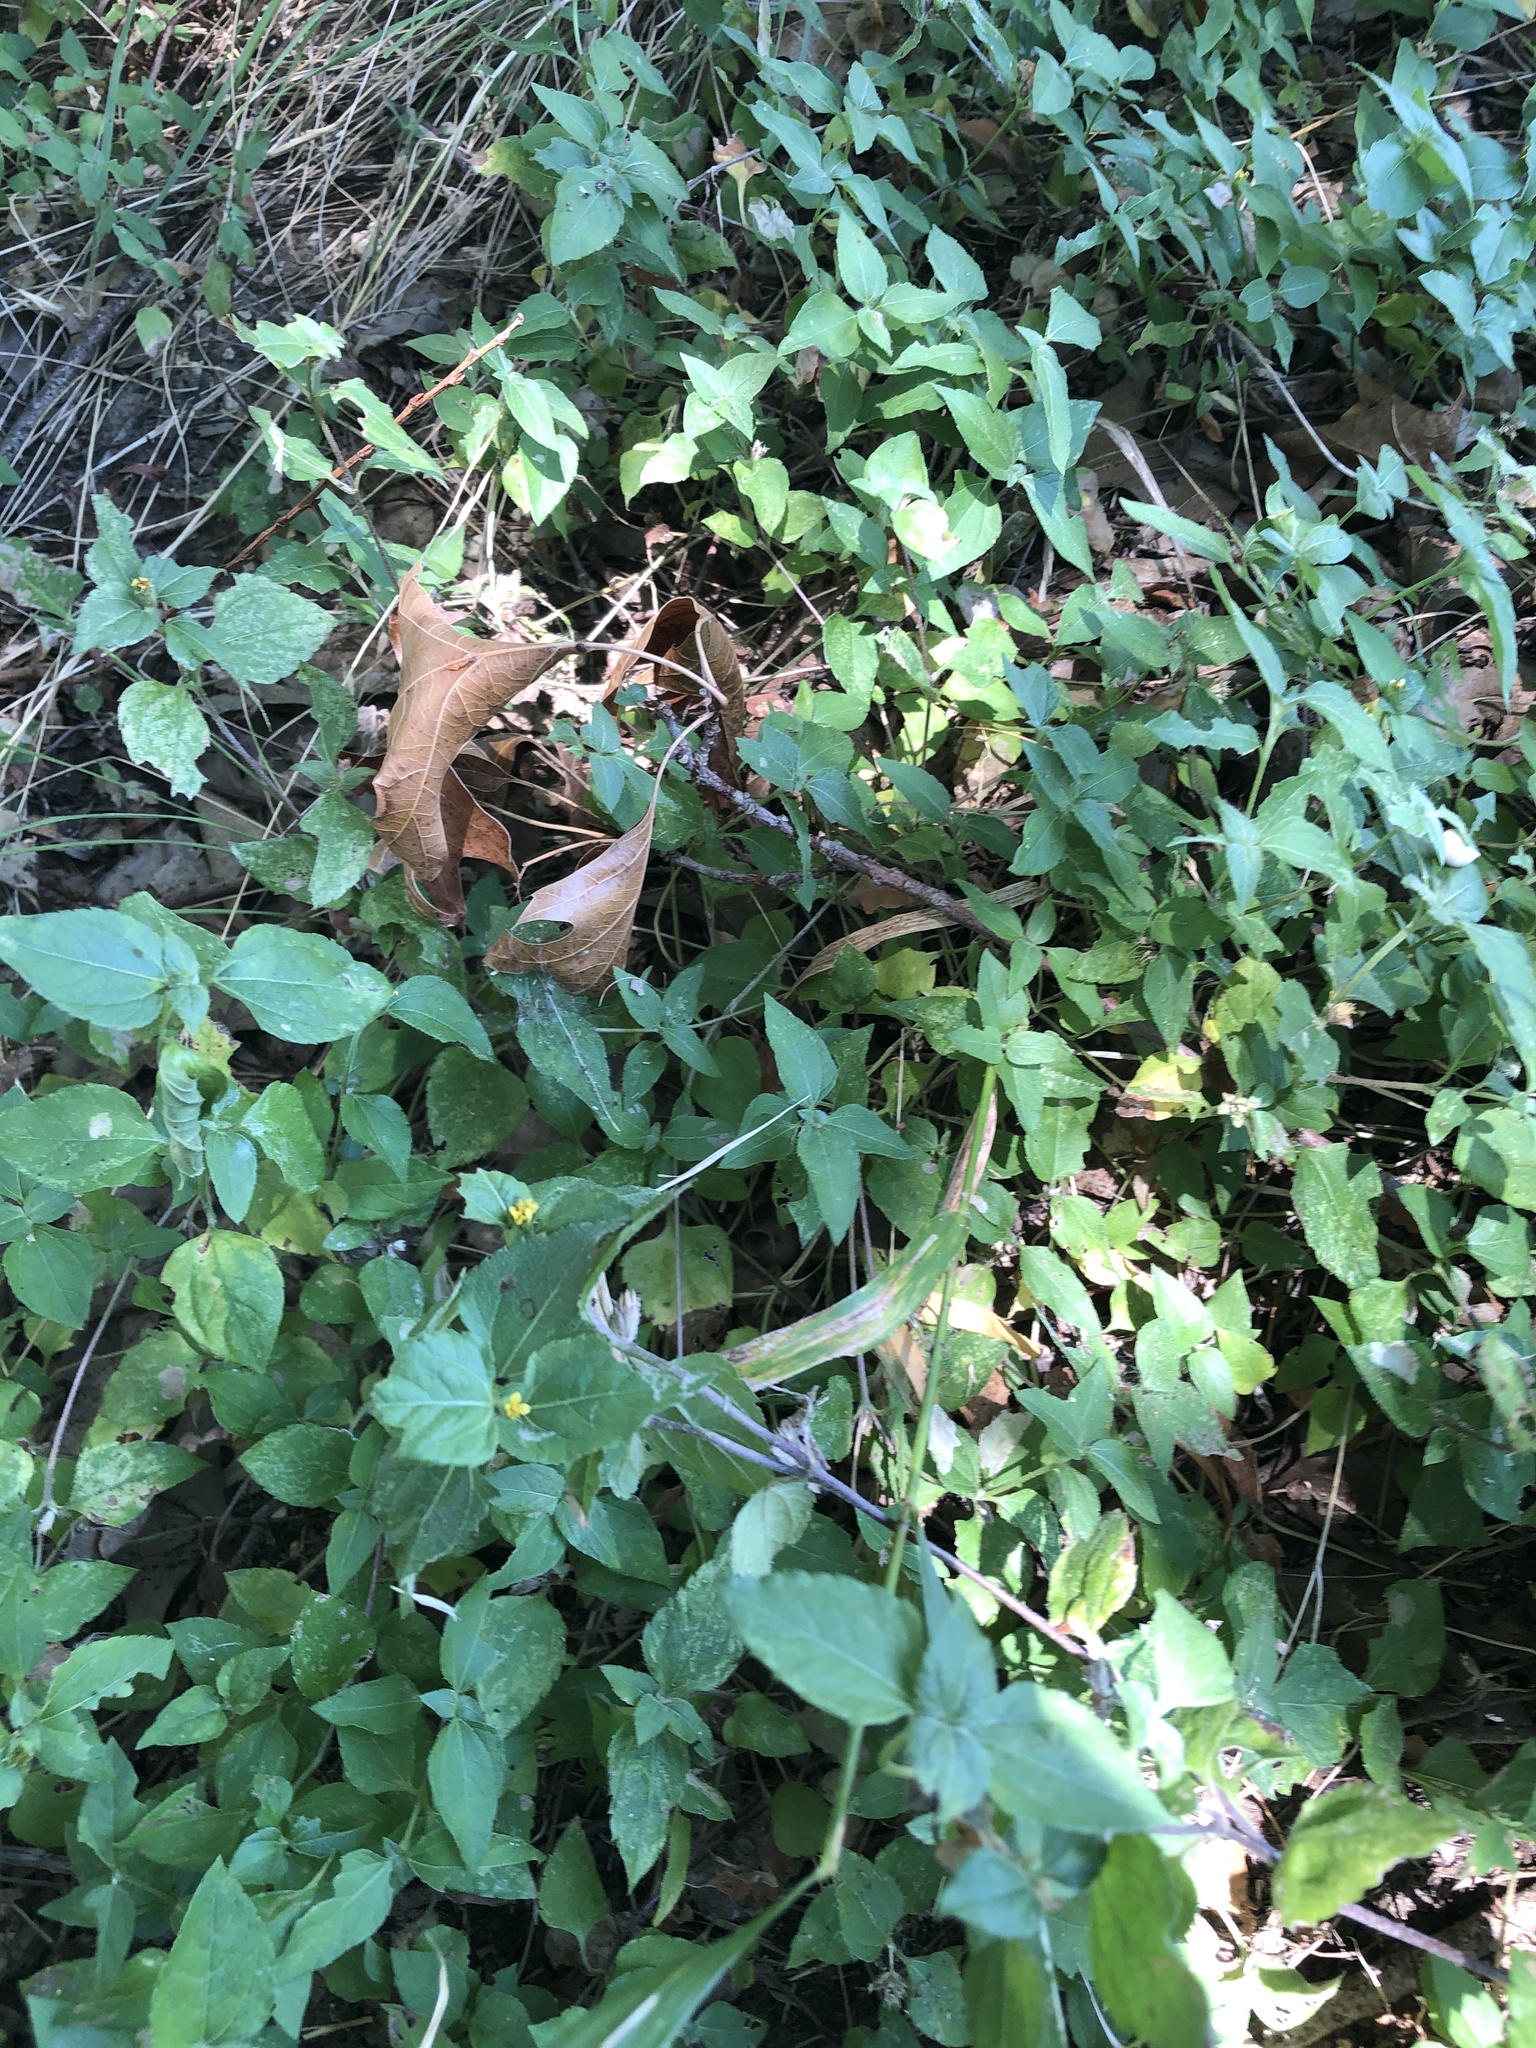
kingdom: Plantae
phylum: Tracheophyta
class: Magnoliopsida
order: Asterales
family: Asteraceae
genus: Calyptocarpus
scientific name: Calyptocarpus vialis
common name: Straggler daisy
